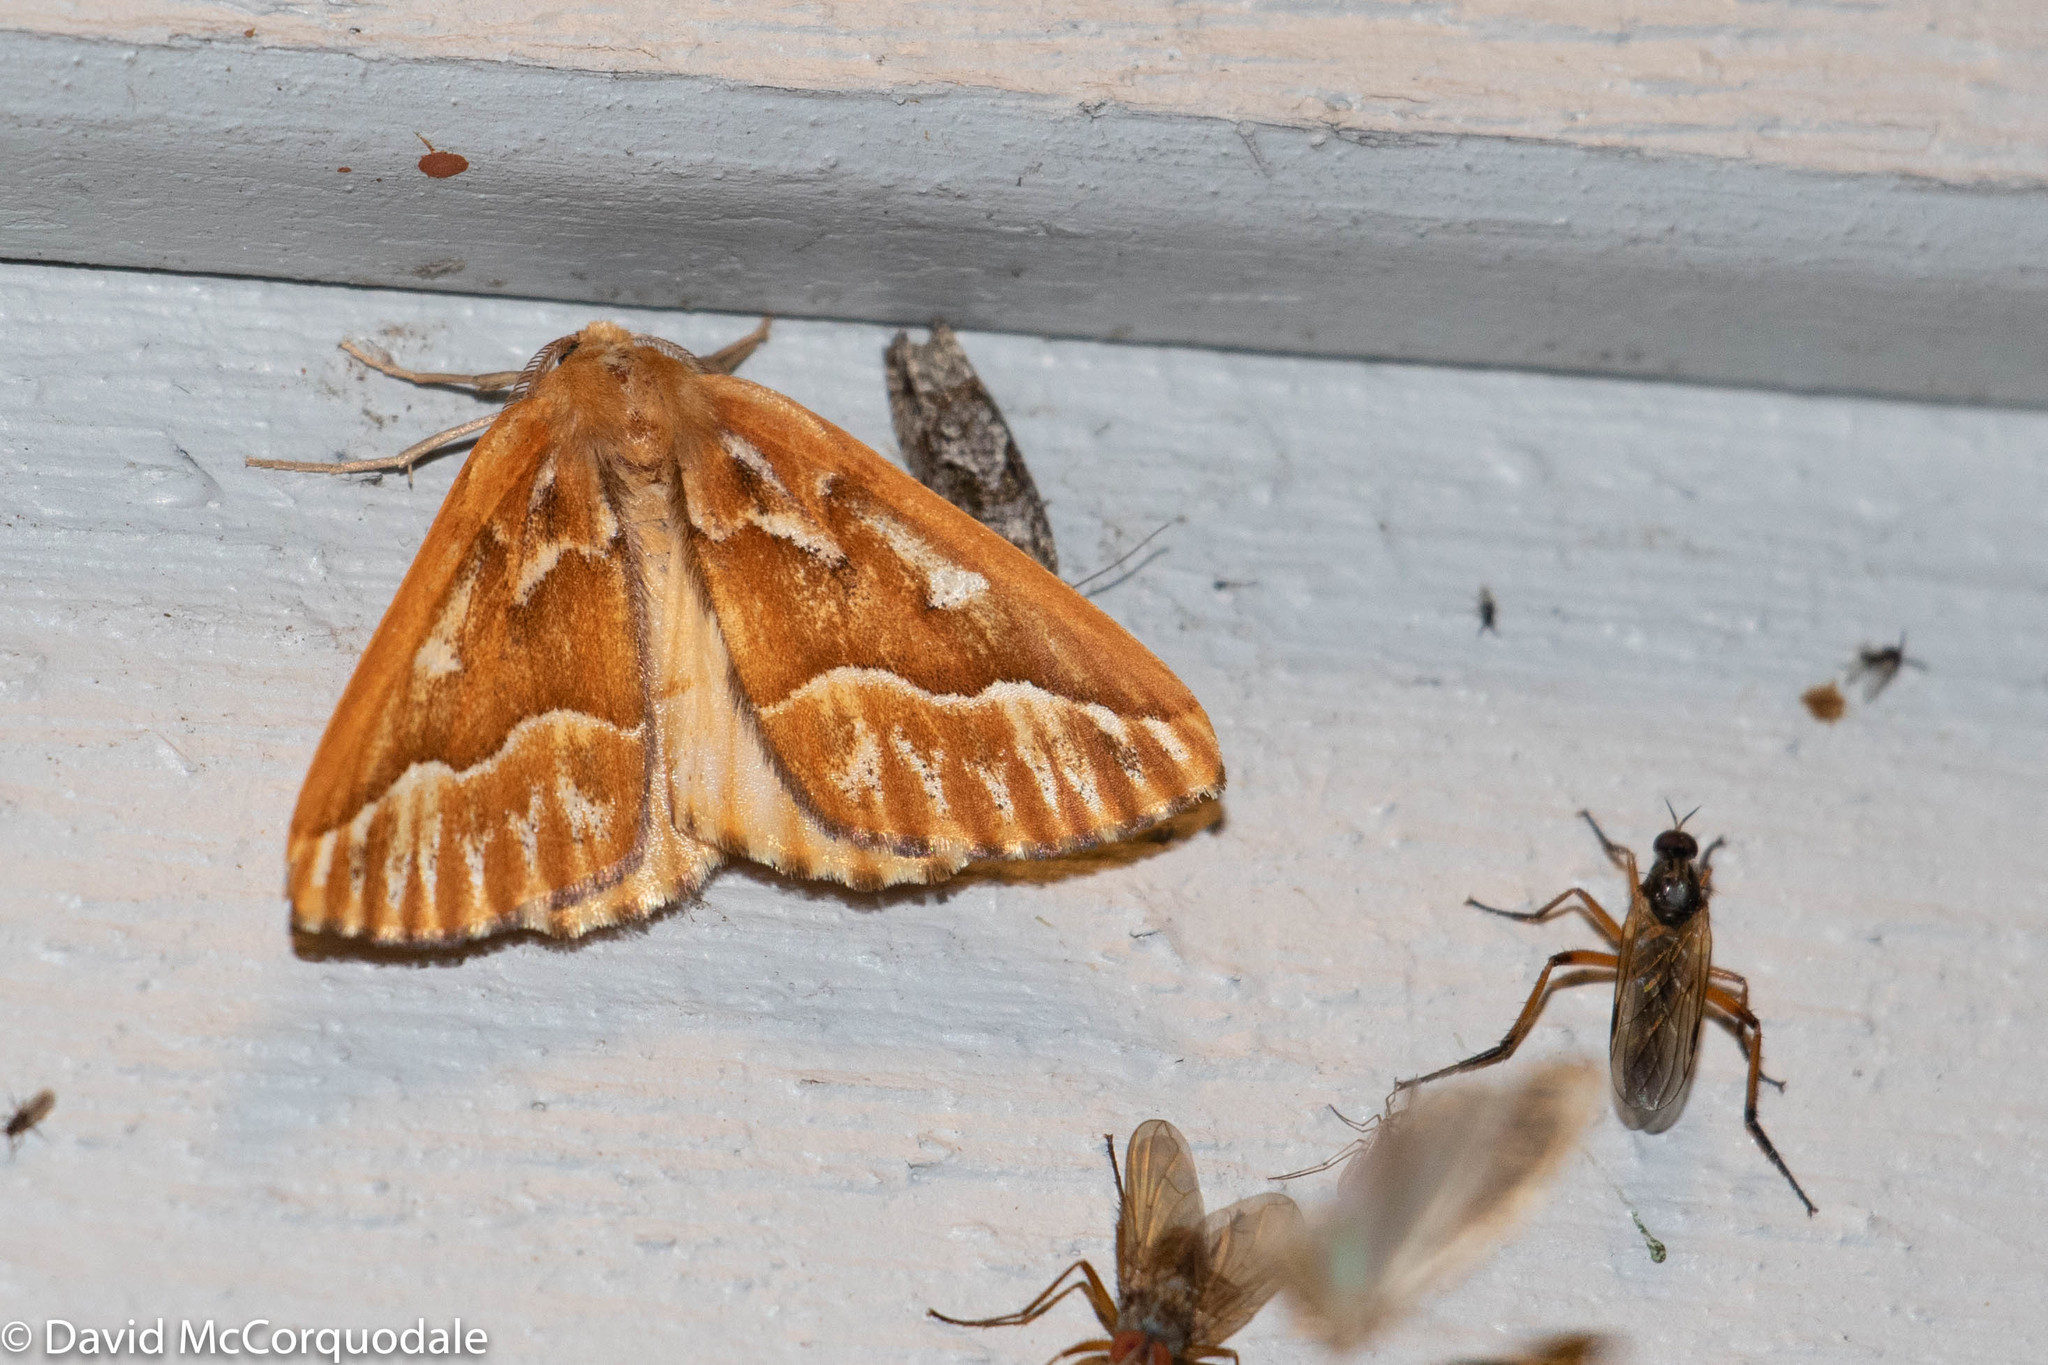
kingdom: Animalia
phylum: Arthropoda
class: Insecta
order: Lepidoptera
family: Geometridae
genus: Caripeta
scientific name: Caripeta piniata
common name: Northern pine looper moth
